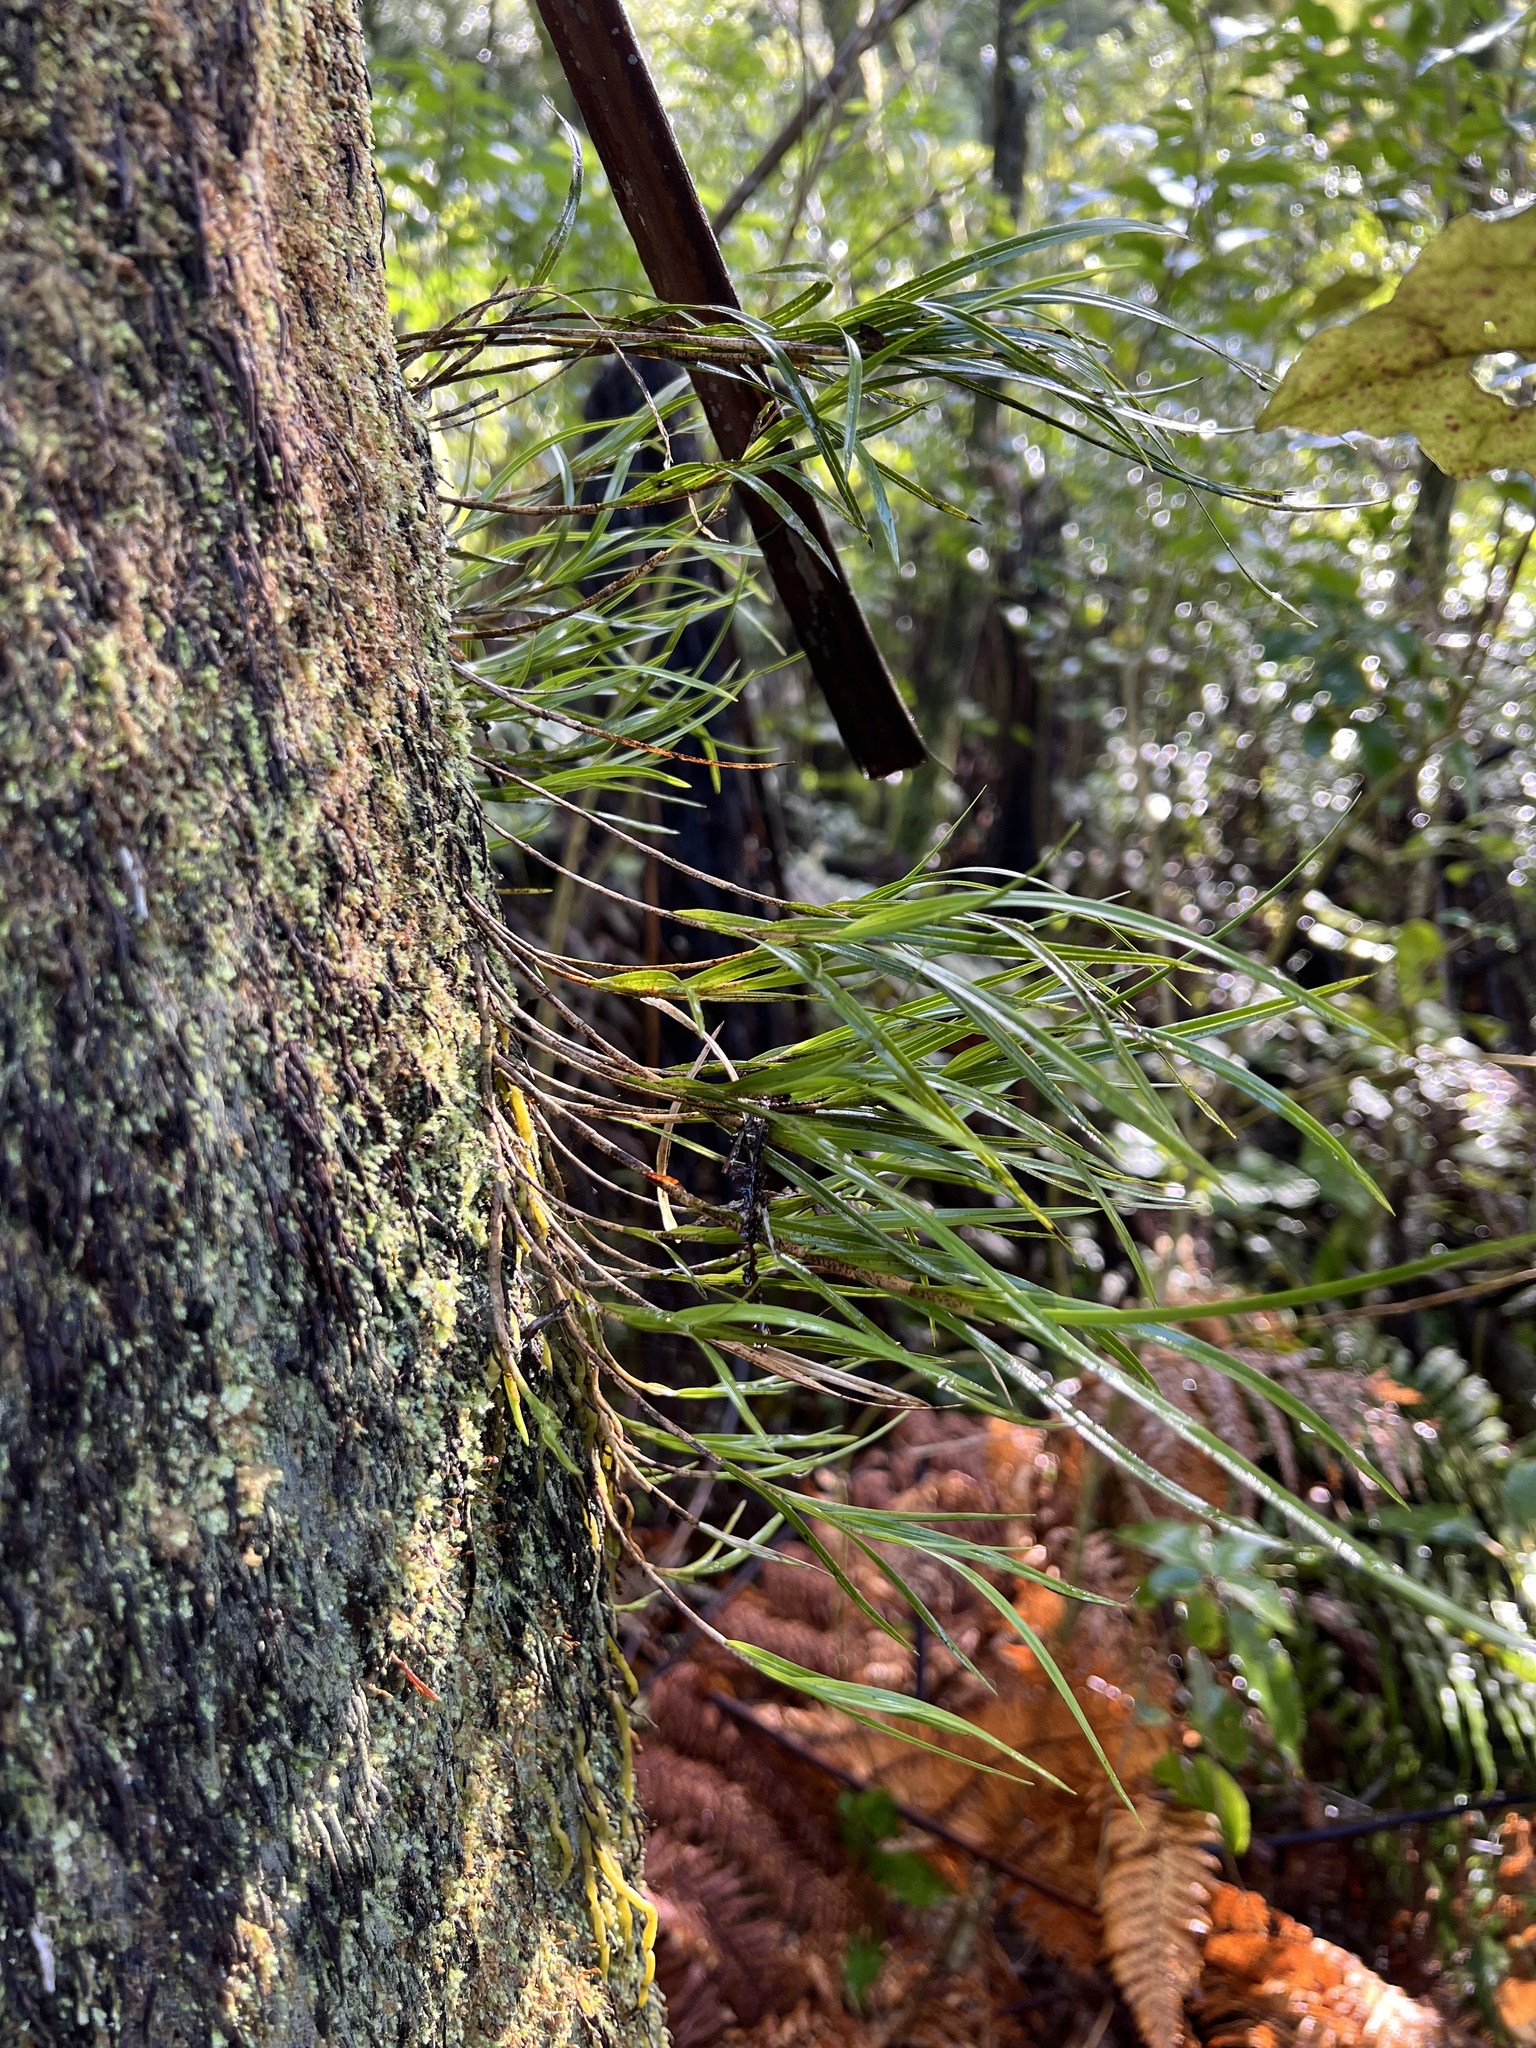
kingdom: Plantae
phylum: Tracheophyta
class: Liliopsida
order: Asparagales
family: Orchidaceae
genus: Earina
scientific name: Earina mucronata
